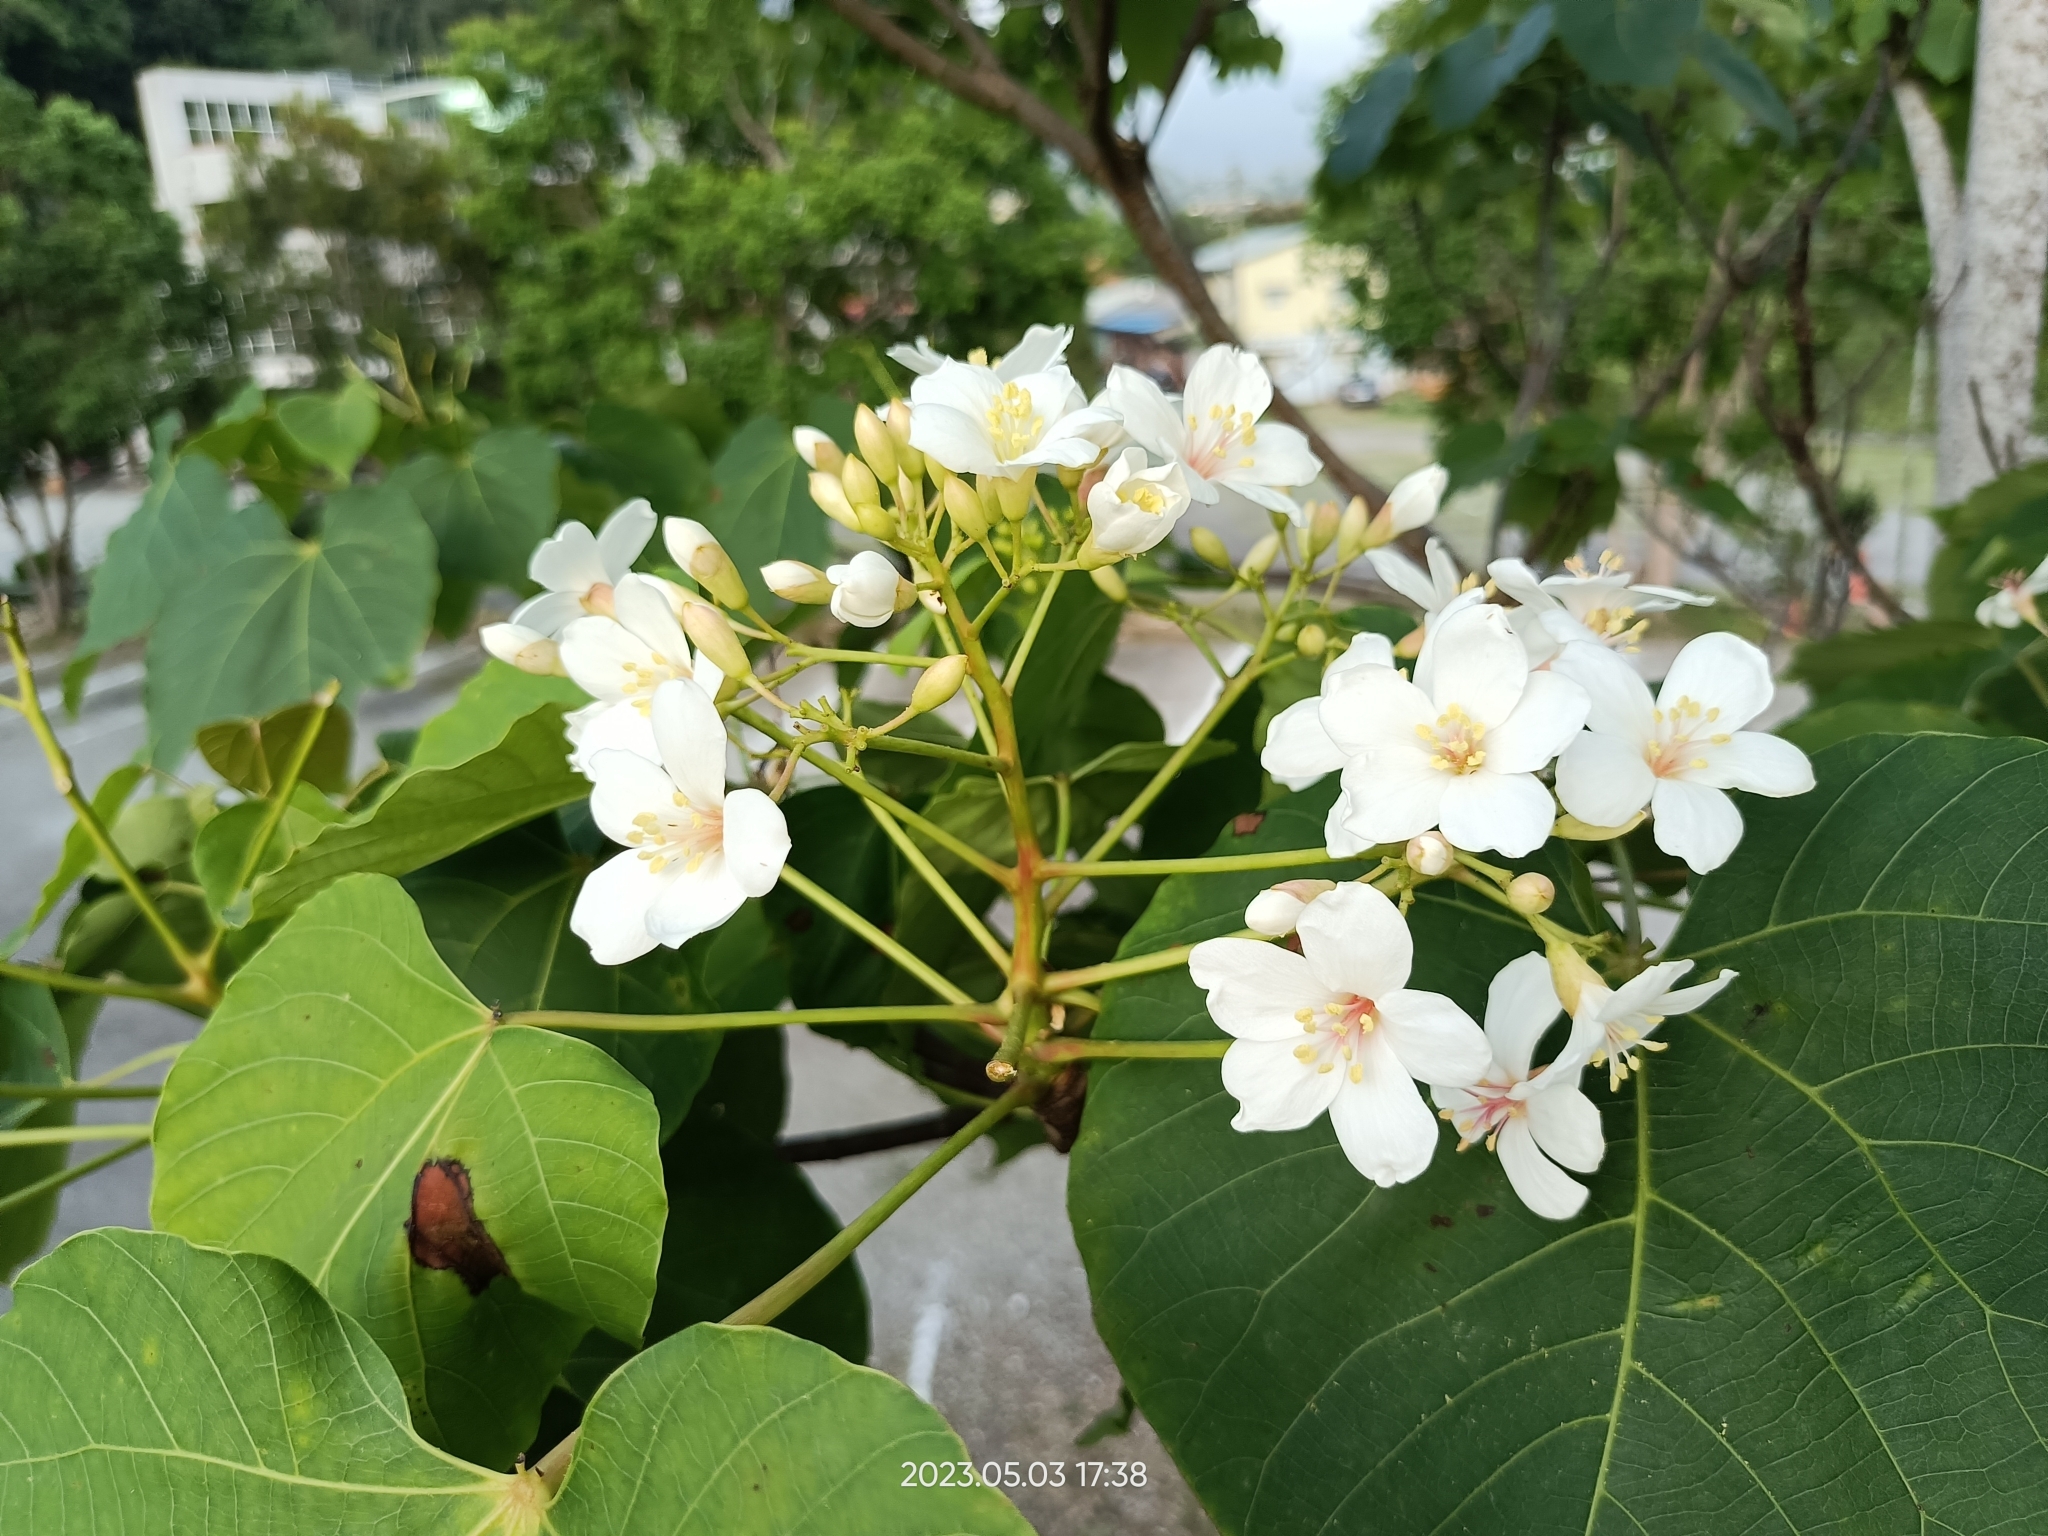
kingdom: Plantae
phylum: Tracheophyta
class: Magnoliopsida
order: Malpighiales
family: Euphorbiaceae
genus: Vernicia
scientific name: Vernicia montana
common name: Mu oil tree
